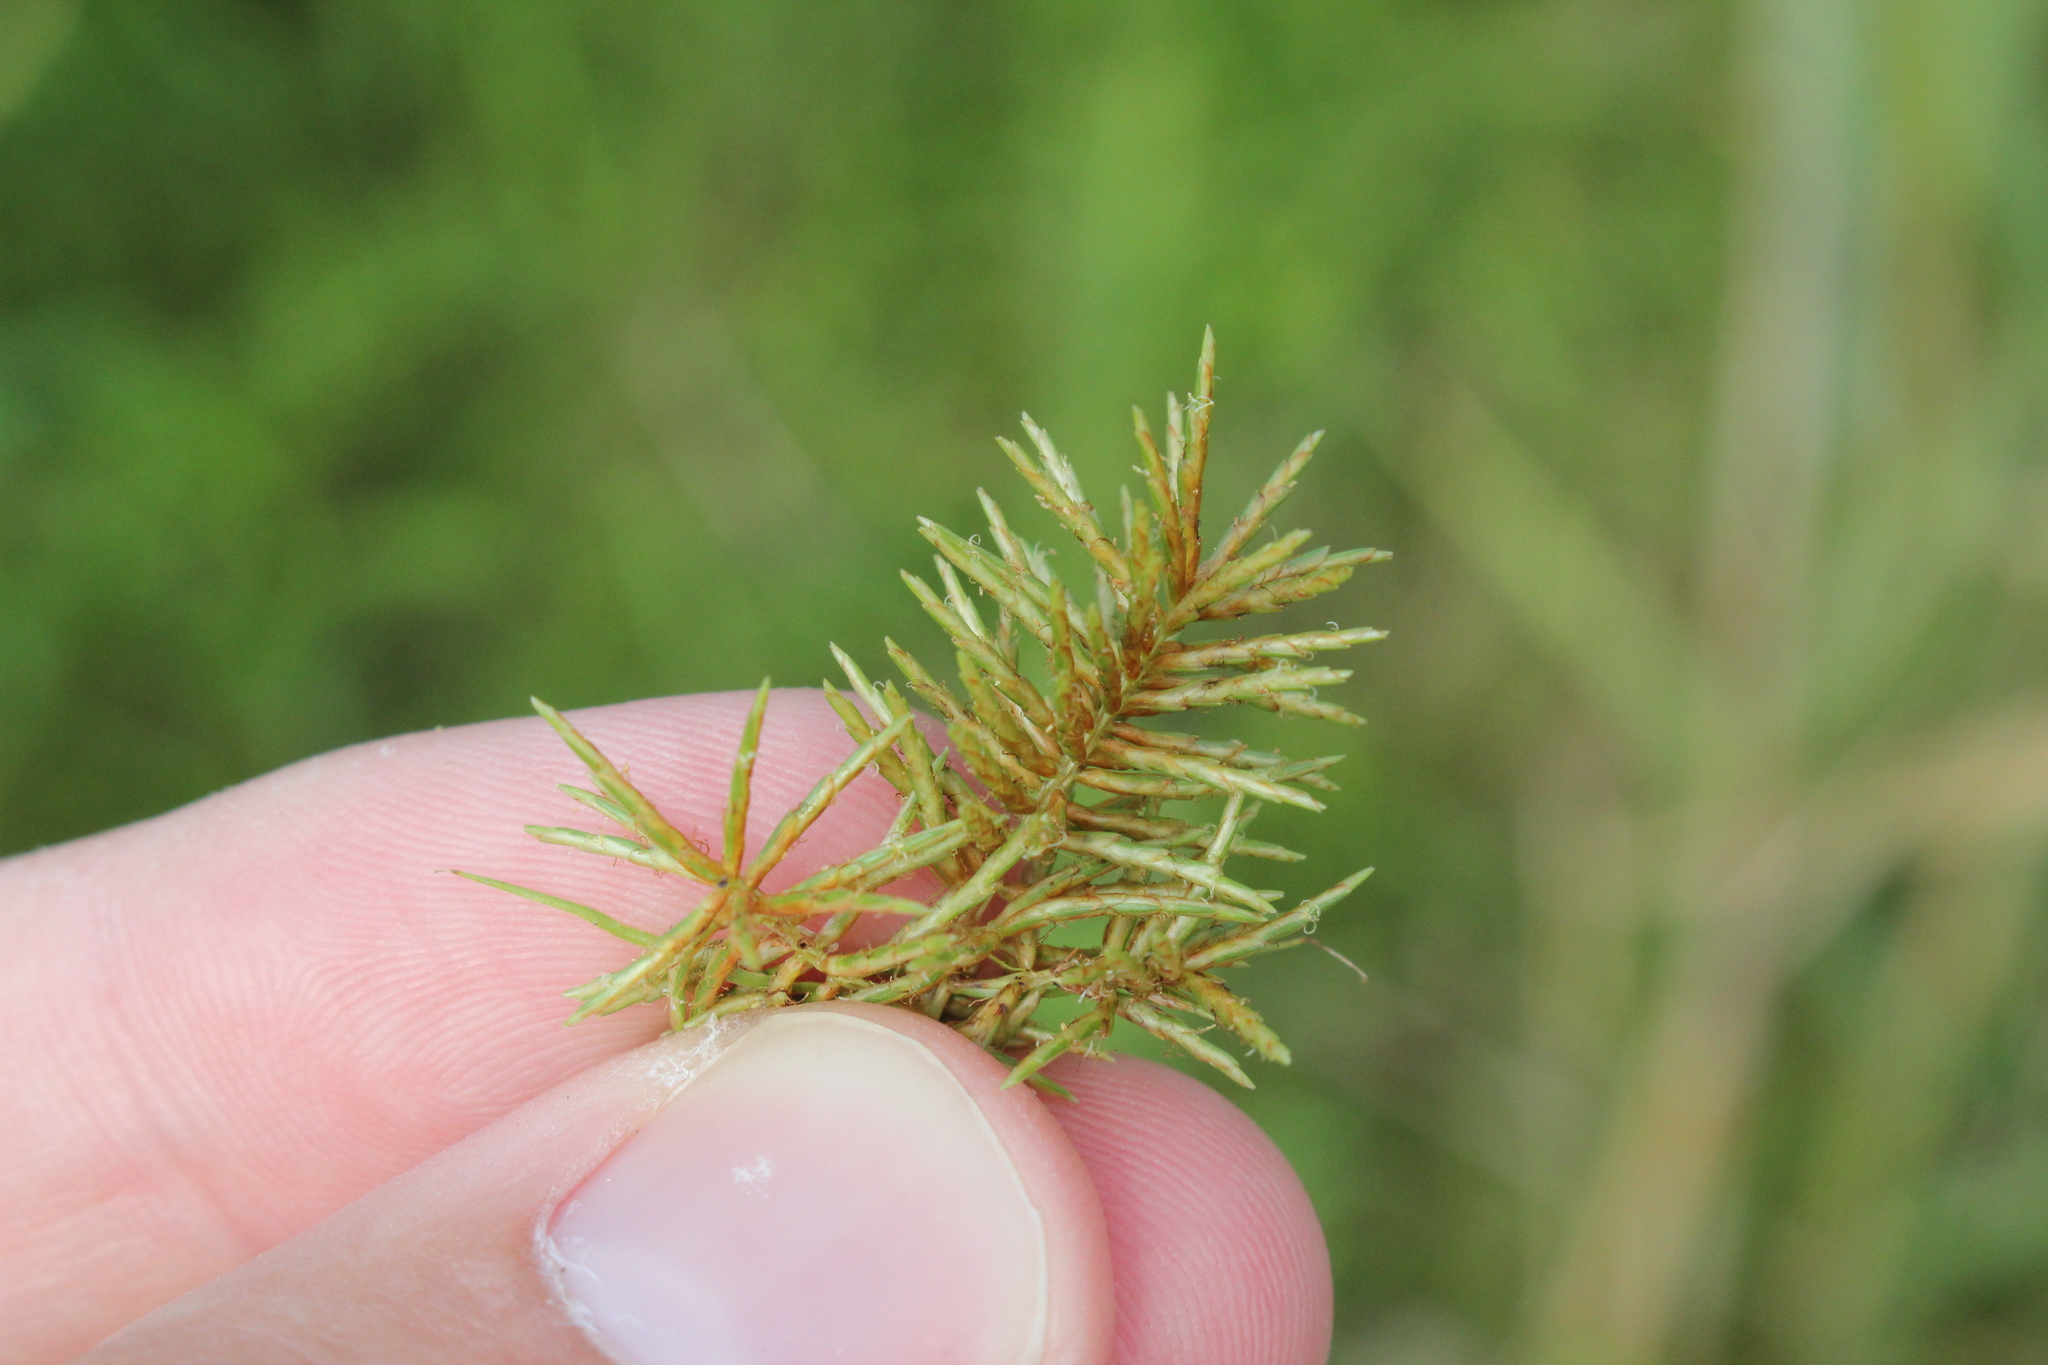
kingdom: Plantae
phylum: Tracheophyta
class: Liliopsida
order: Poales
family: Cyperaceae
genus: Cyperus
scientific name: Cyperus odoratus
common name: Fragrant flatsedge
